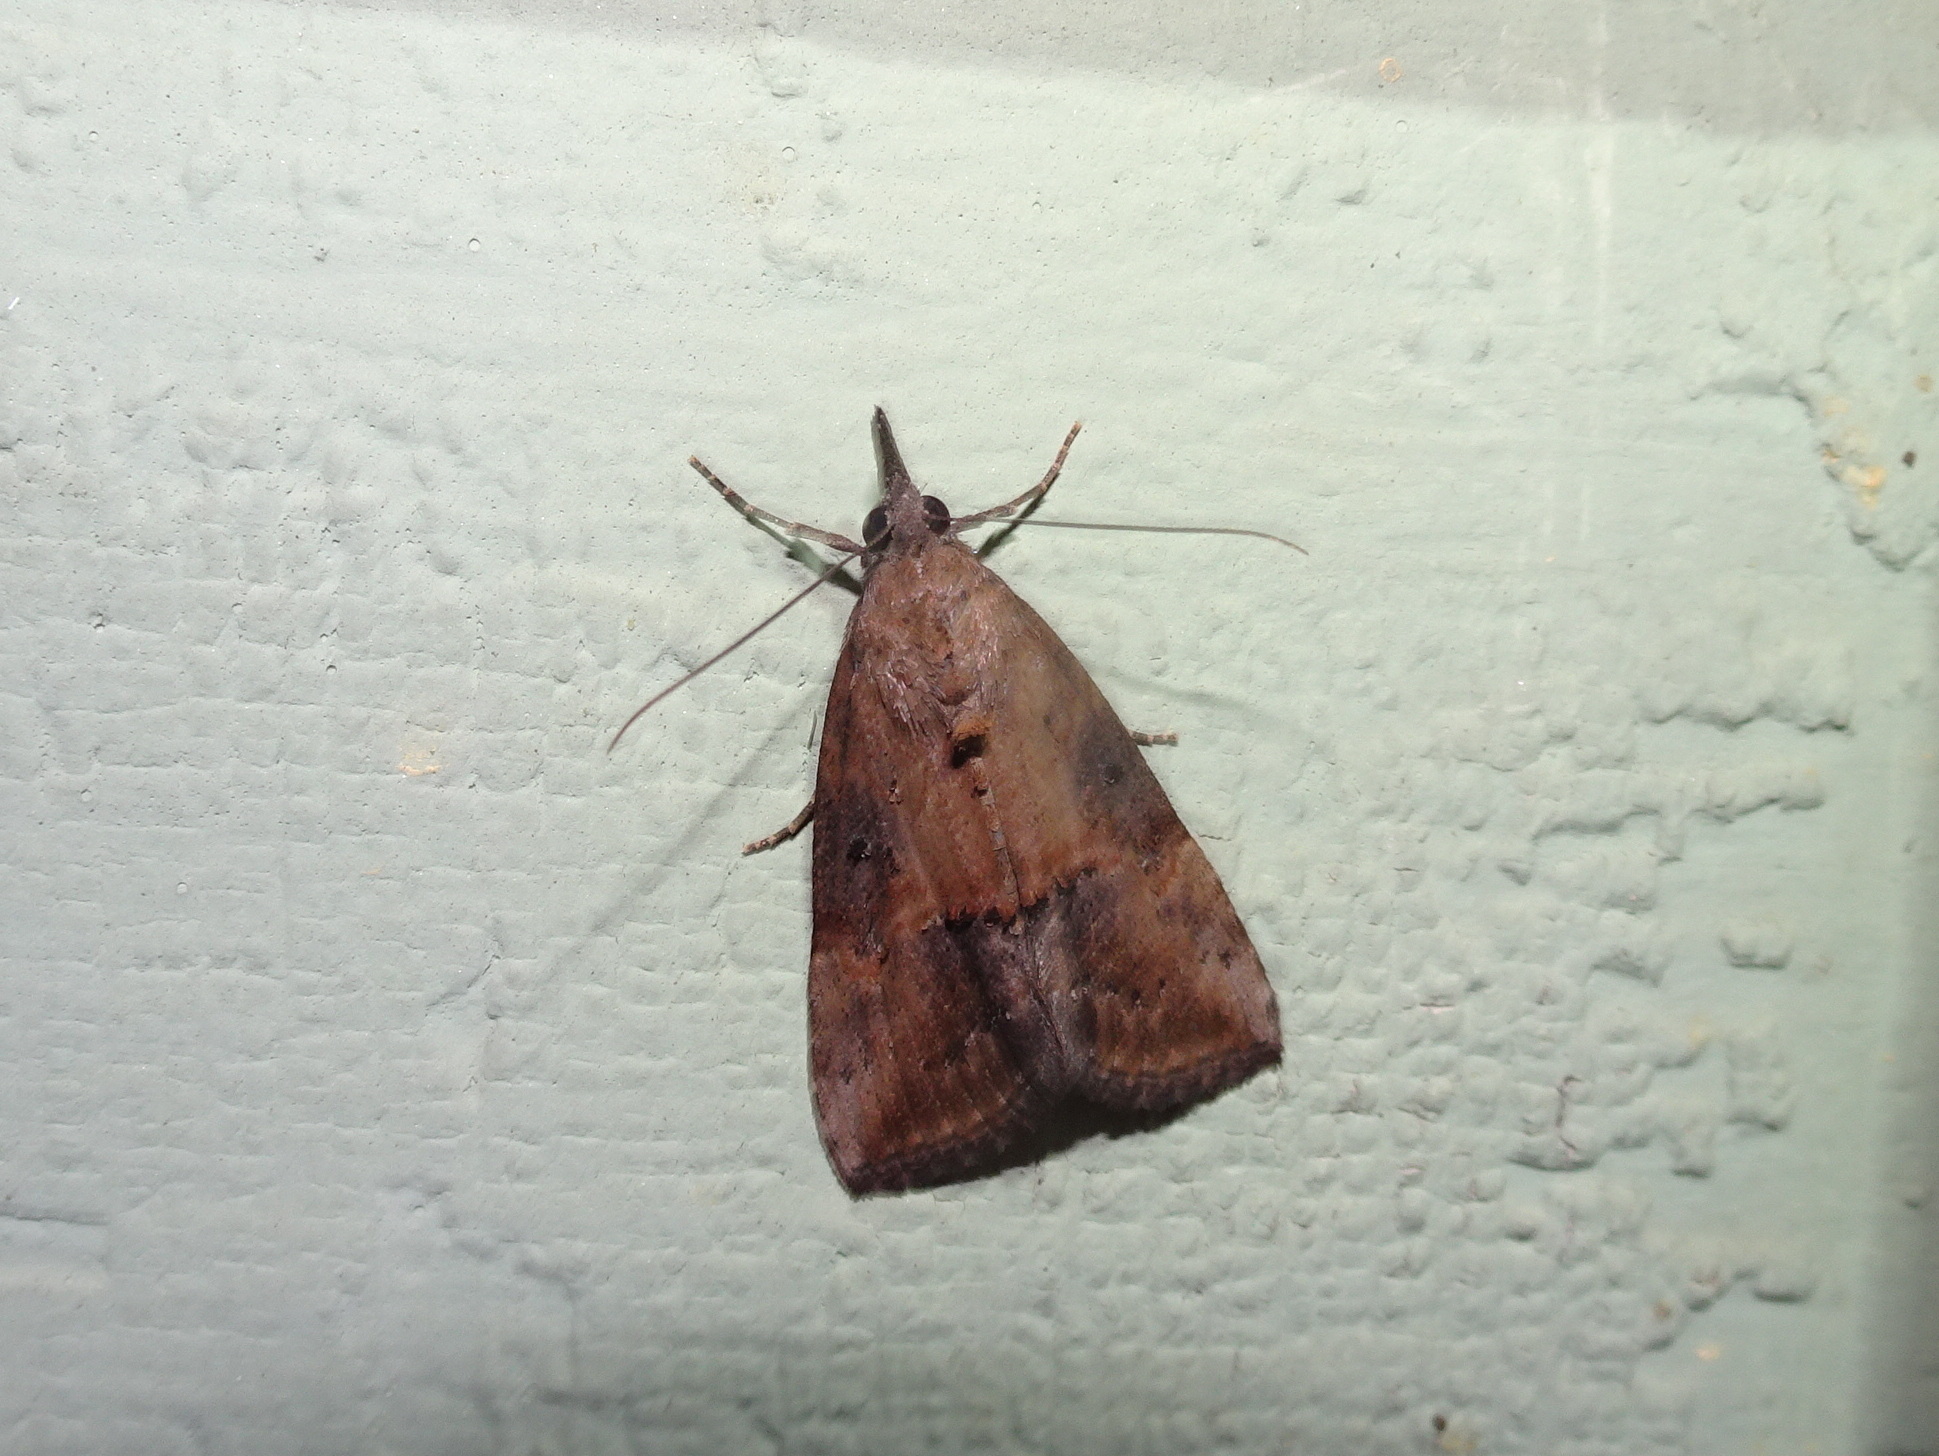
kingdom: Animalia
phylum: Arthropoda
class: Insecta
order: Lepidoptera
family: Erebidae
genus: Hypena
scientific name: Hypena scabra
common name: Green cloverworm
